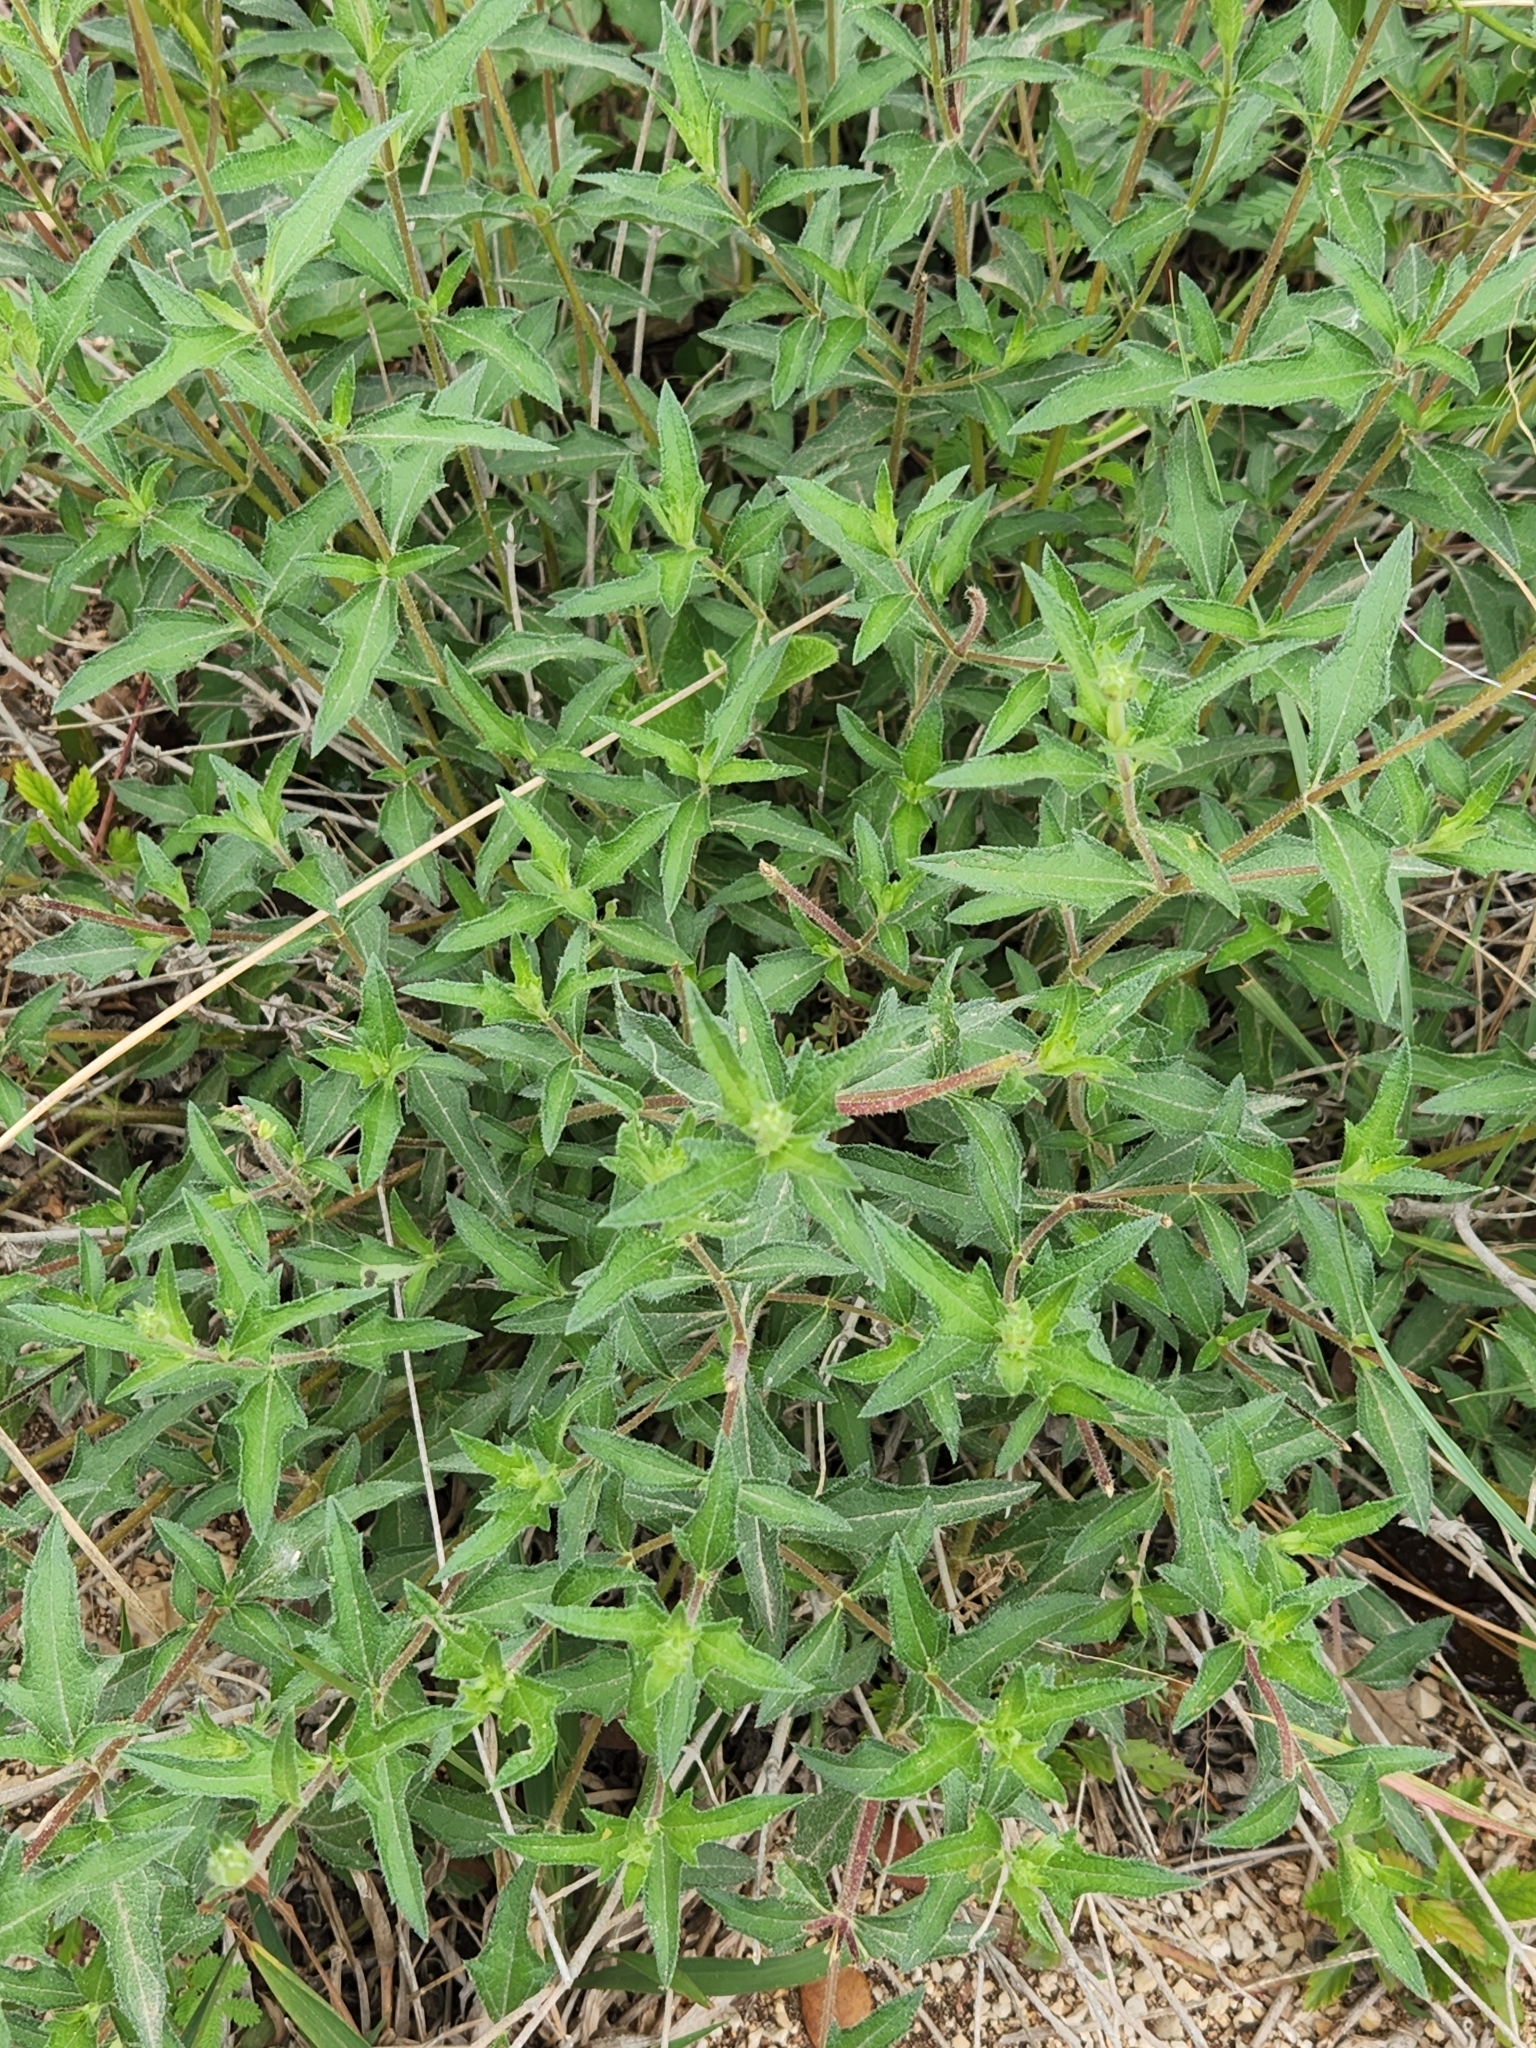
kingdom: Plantae
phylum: Tracheophyta
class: Magnoliopsida
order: Asterales
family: Asteraceae
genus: Wedelia
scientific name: Wedelia acapulcensis
